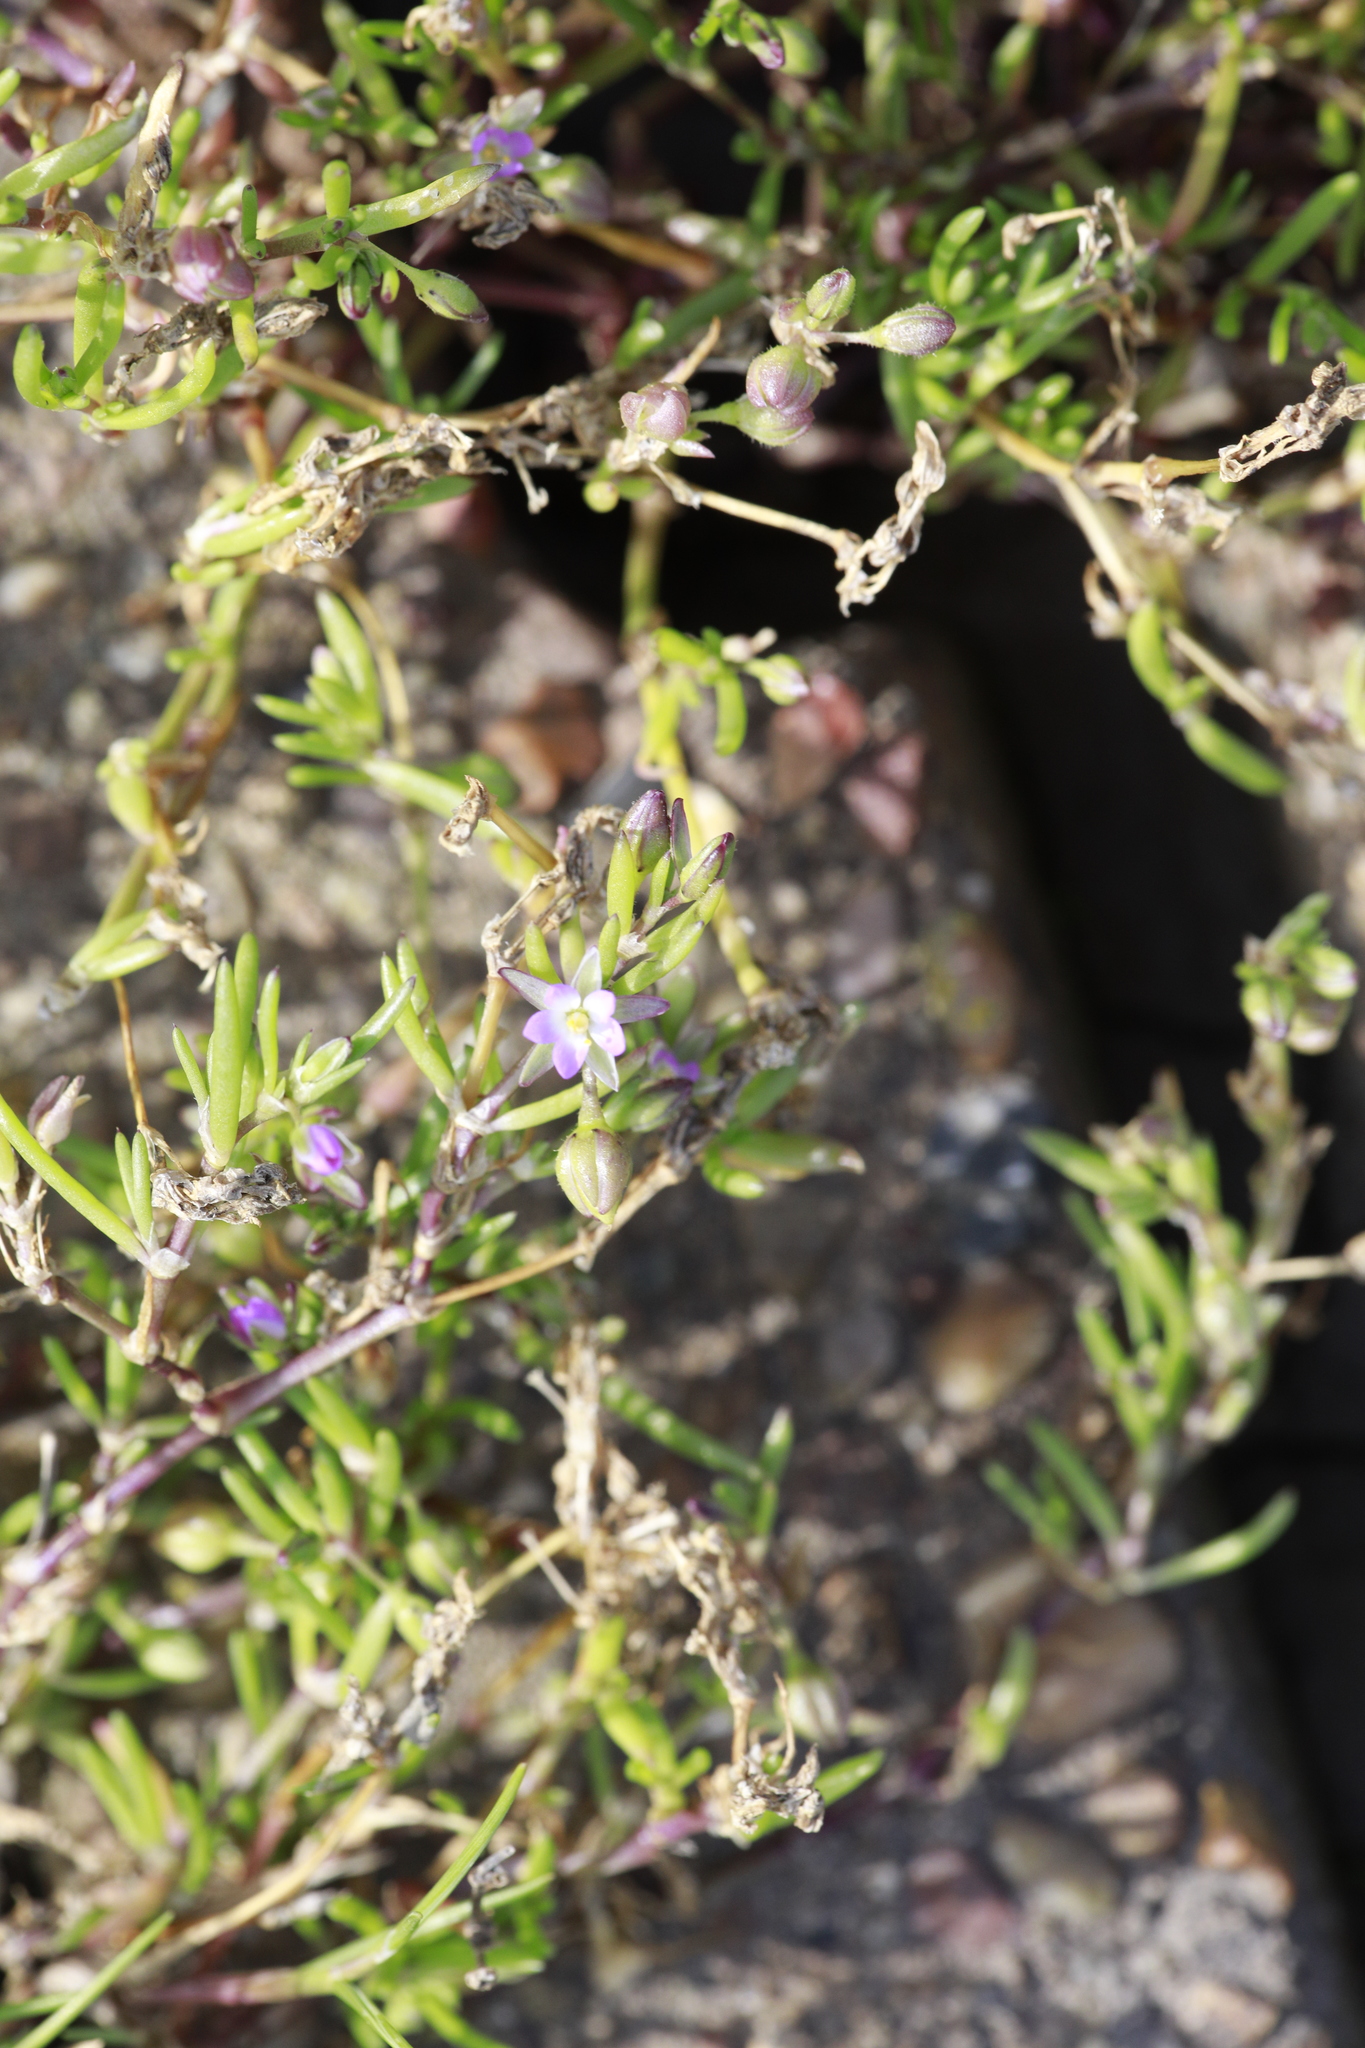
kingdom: Plantae
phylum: Tracheophyta
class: Magnoliopsida
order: Caryophyllales
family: Caryophyllaceae
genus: Spergularia
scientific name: Spergularia marina
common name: Lesser sea-spurrey
